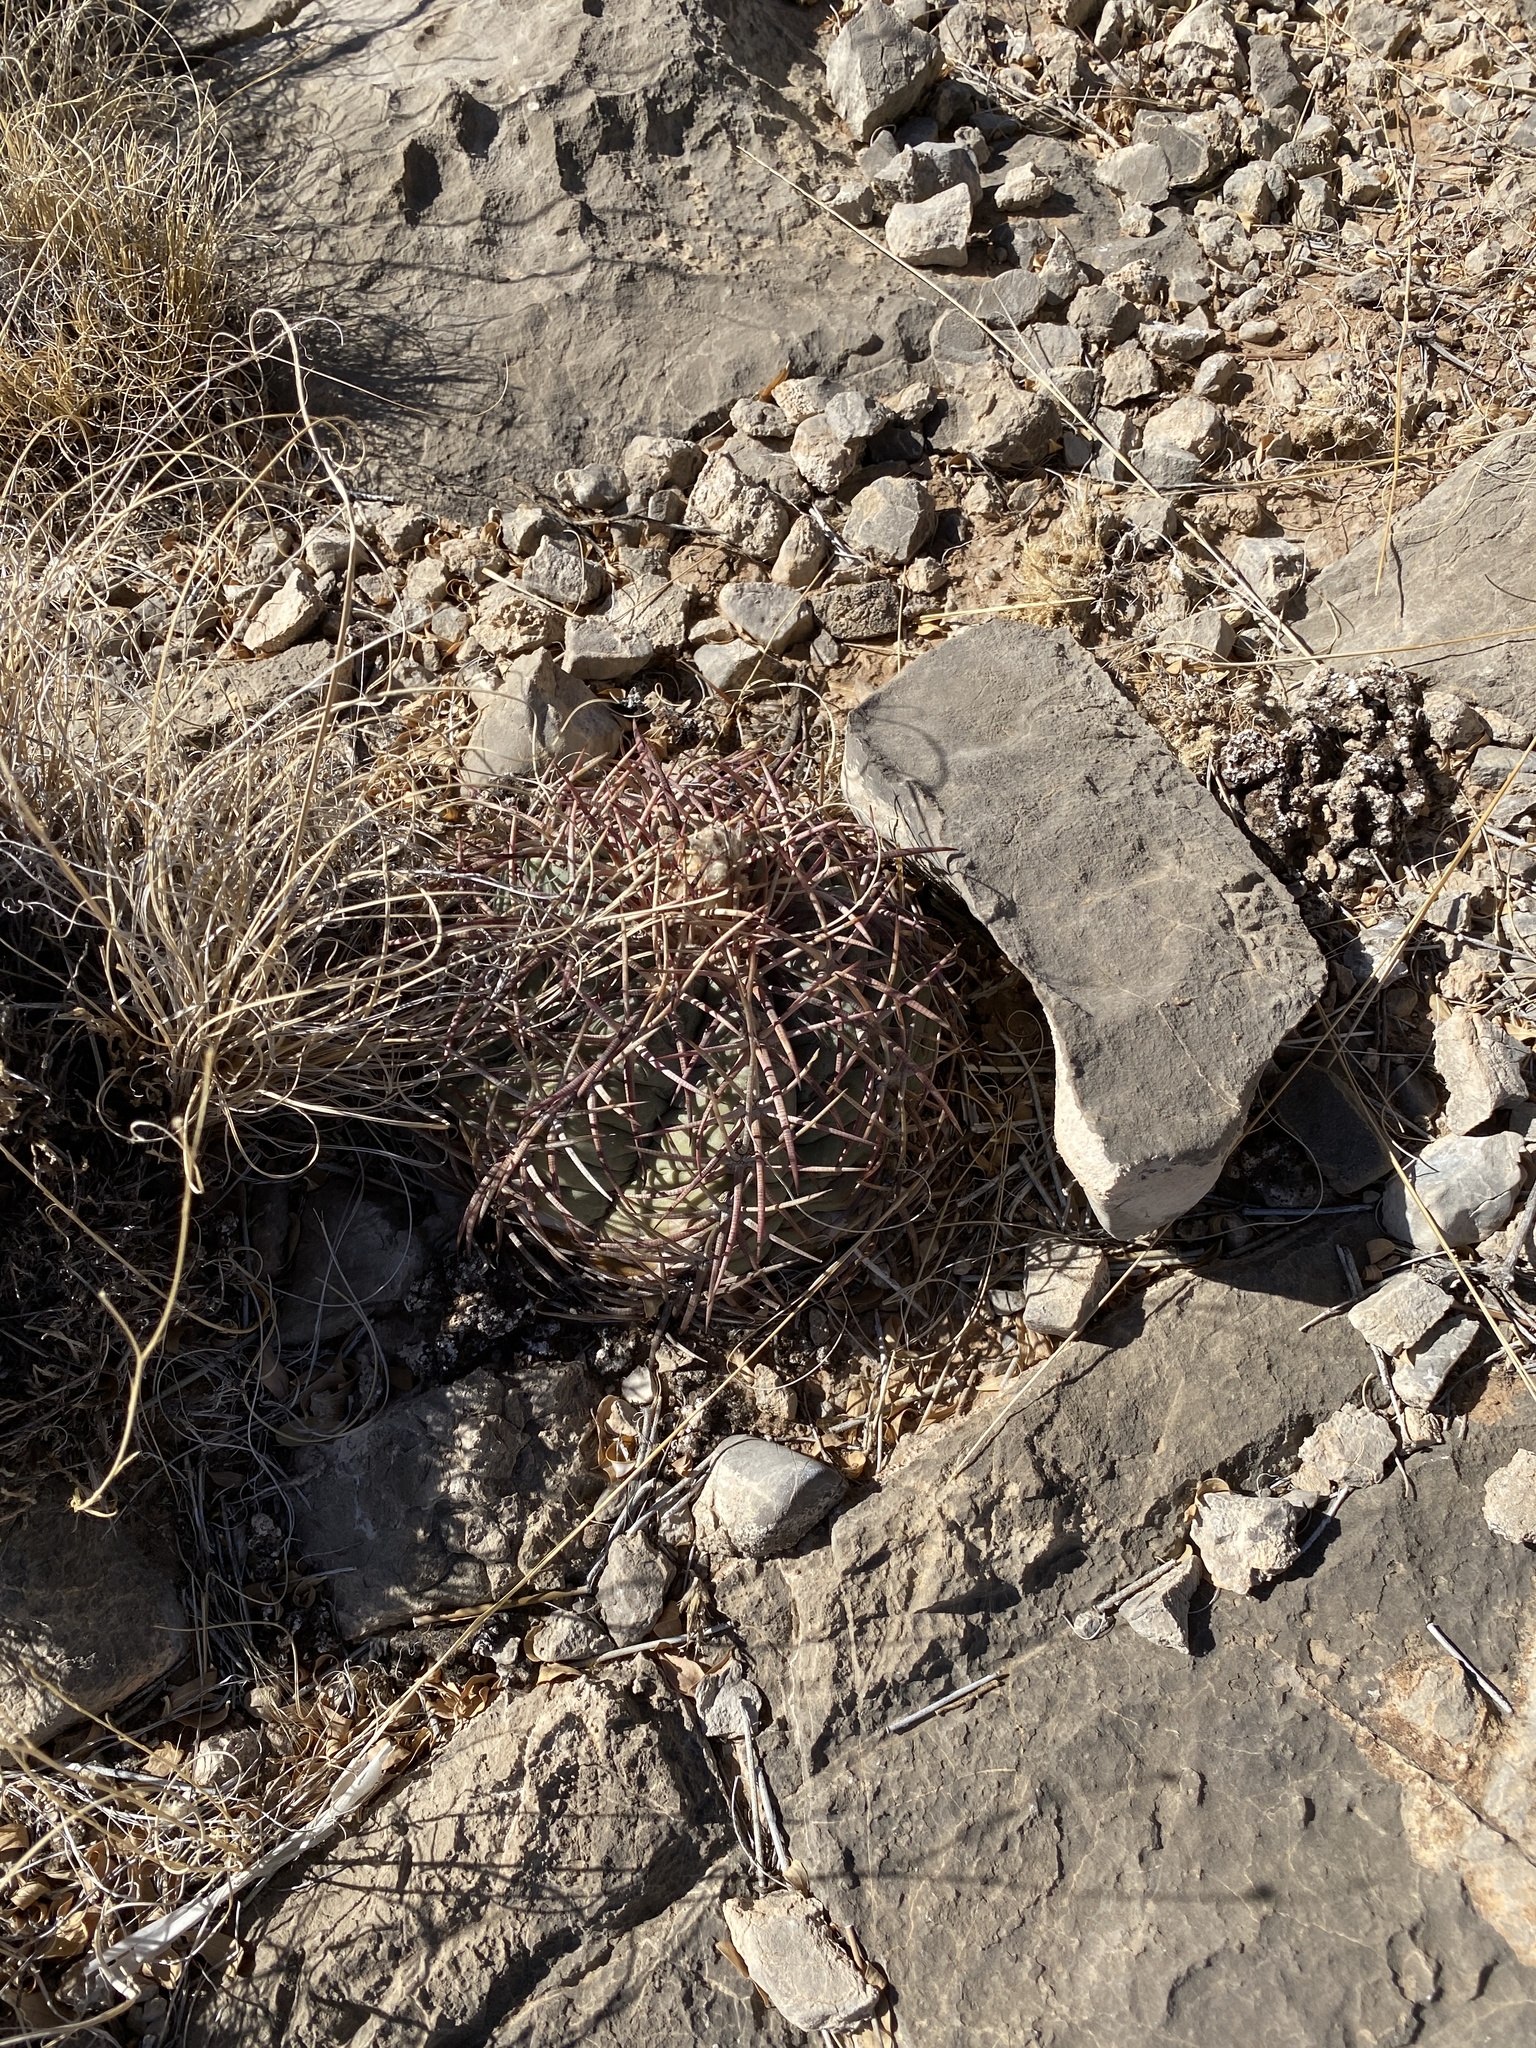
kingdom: Plantae
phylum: Tracheophyta
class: Magnoliopsida
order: Caryophyllales
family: Cactaceae
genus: Echinocactus
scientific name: Echinocactus horizonthalonius
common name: Devilshead
